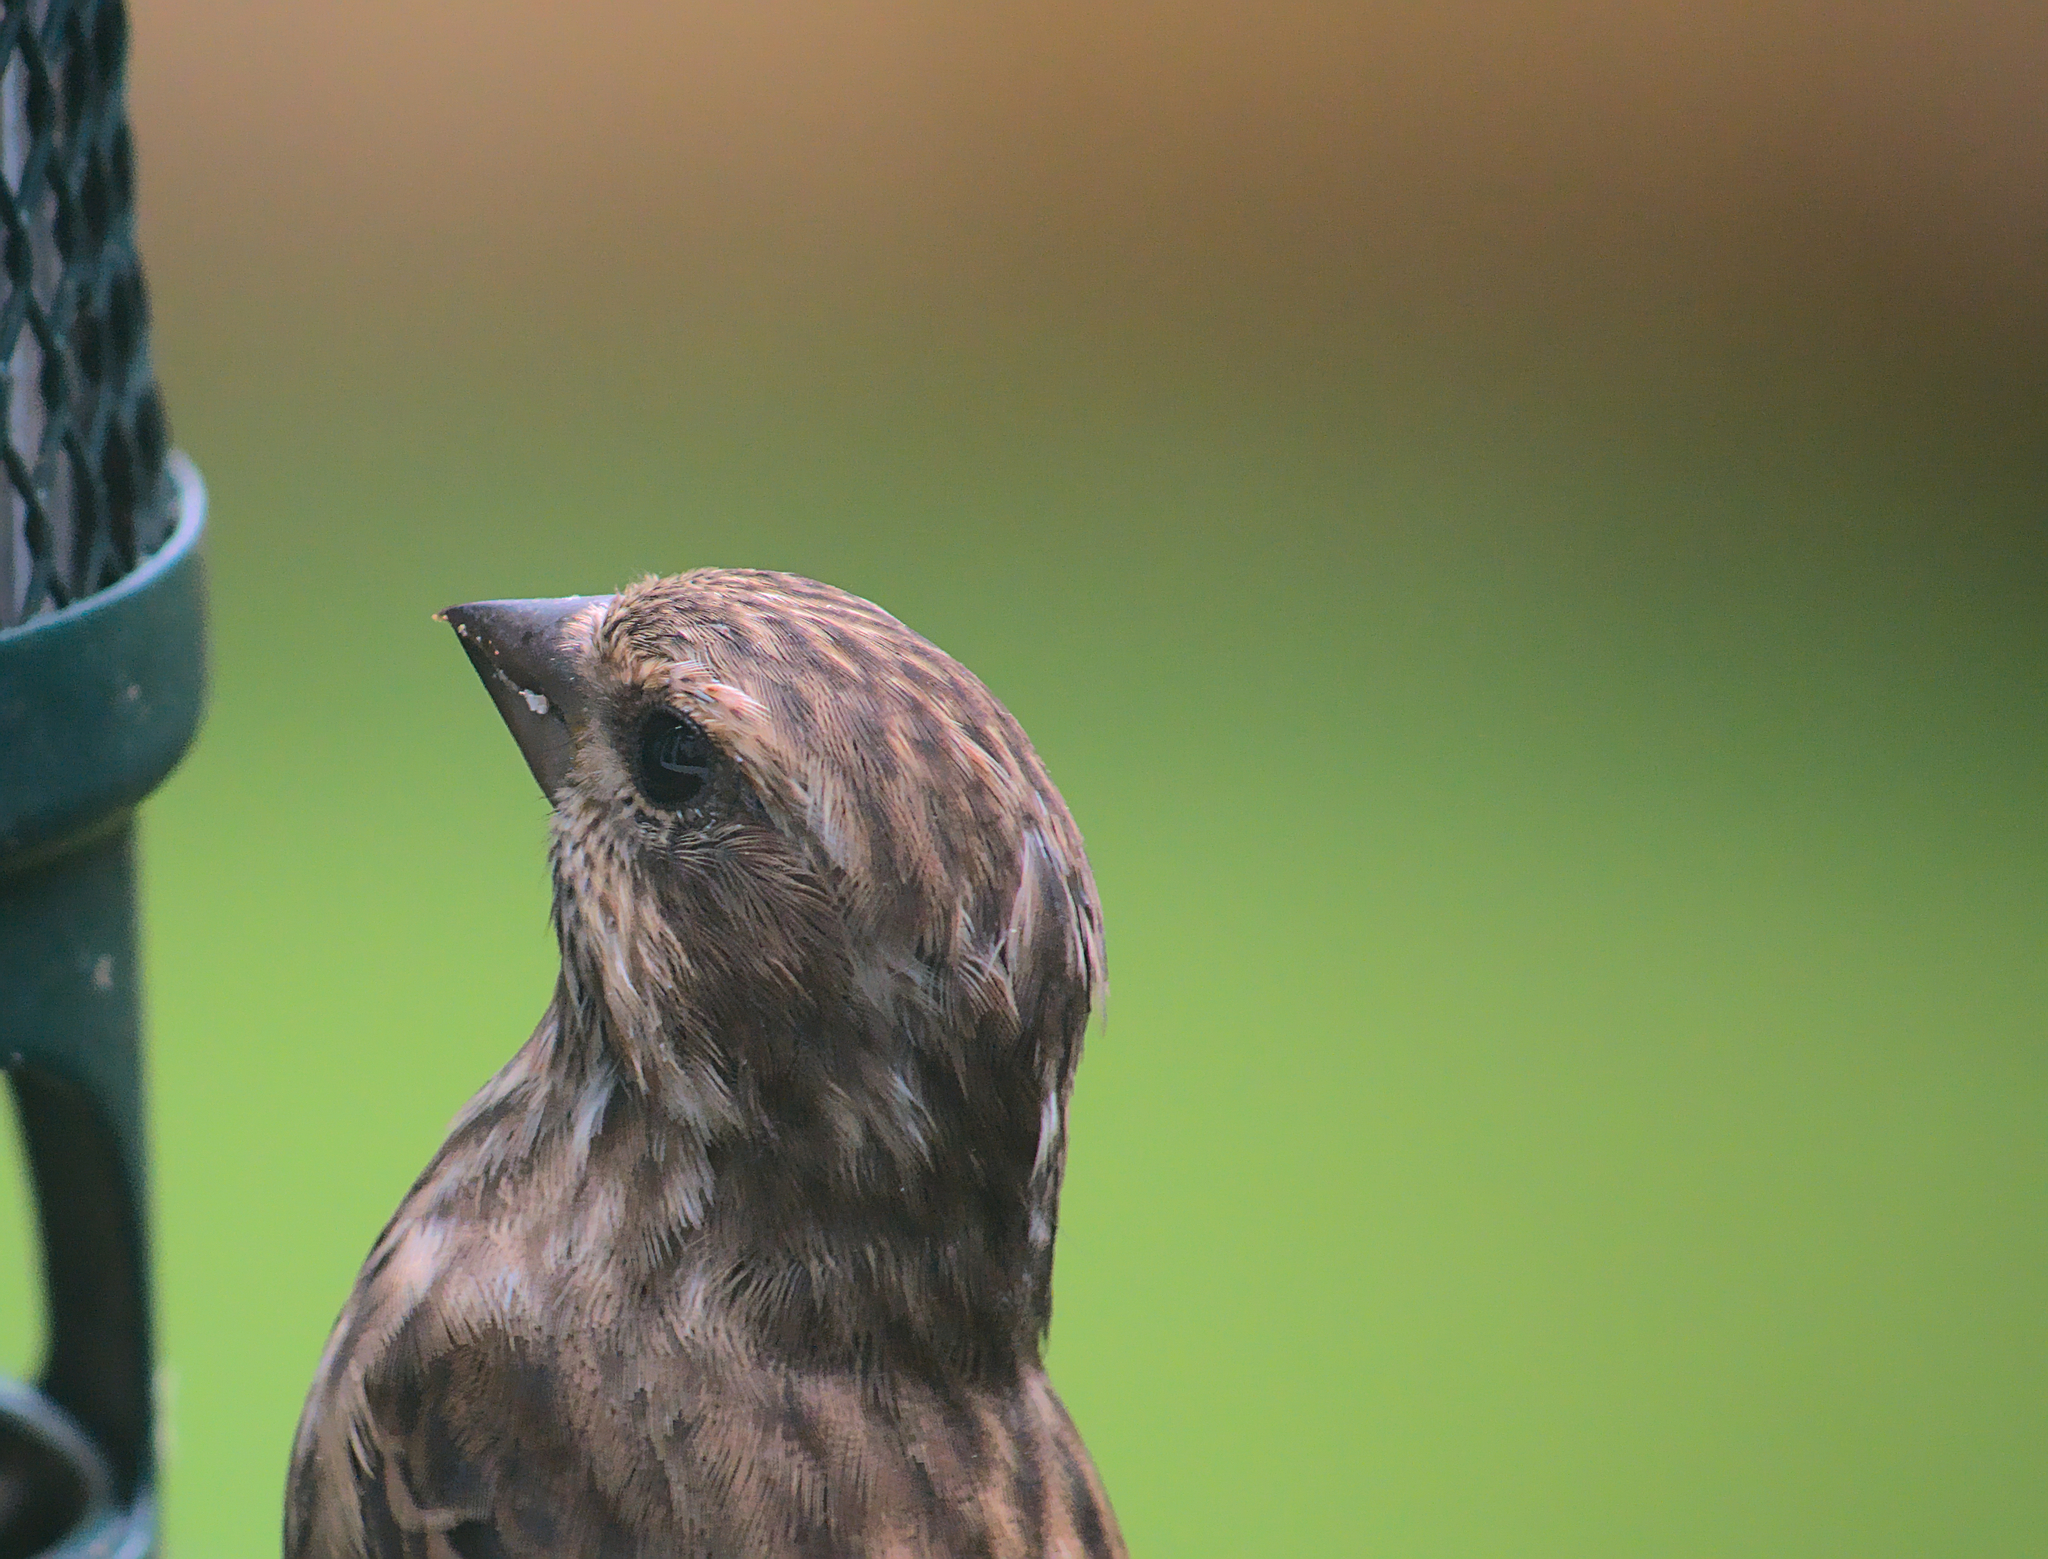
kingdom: Animalia
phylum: Chordata
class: Aves
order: Passeriformes
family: Fringillidae
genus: Haemorhous
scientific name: Haemorhous purpureus
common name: Purple finch
